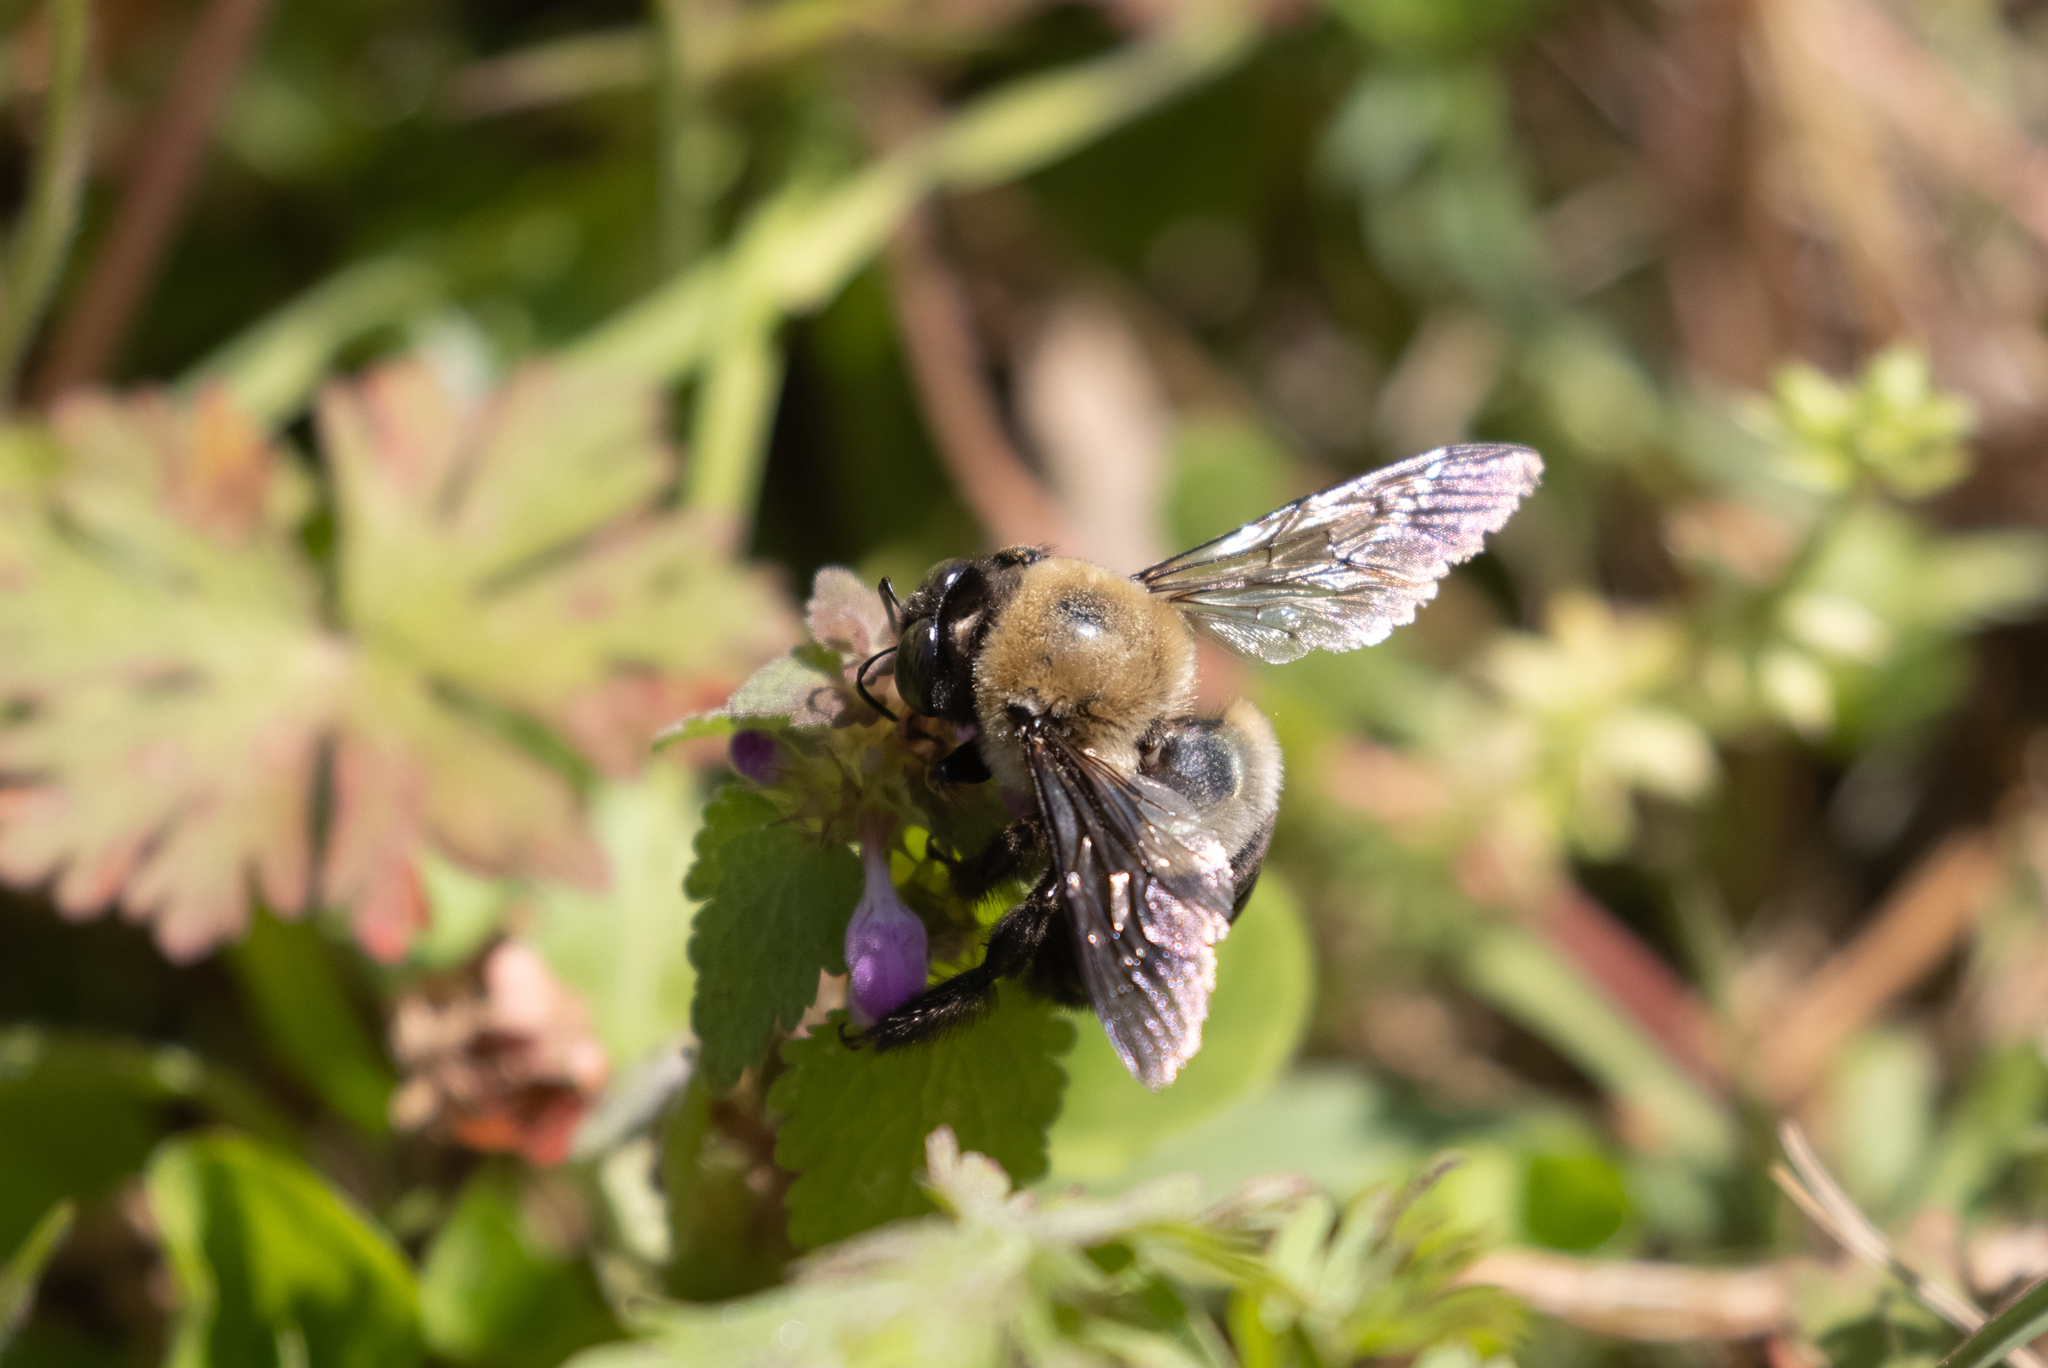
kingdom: Animalia
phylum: Arthropoda
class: Insecta
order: Hymenoptera
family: Apidae
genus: Xylocopa
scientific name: Xylocopa virginica
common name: Carpenter bee
